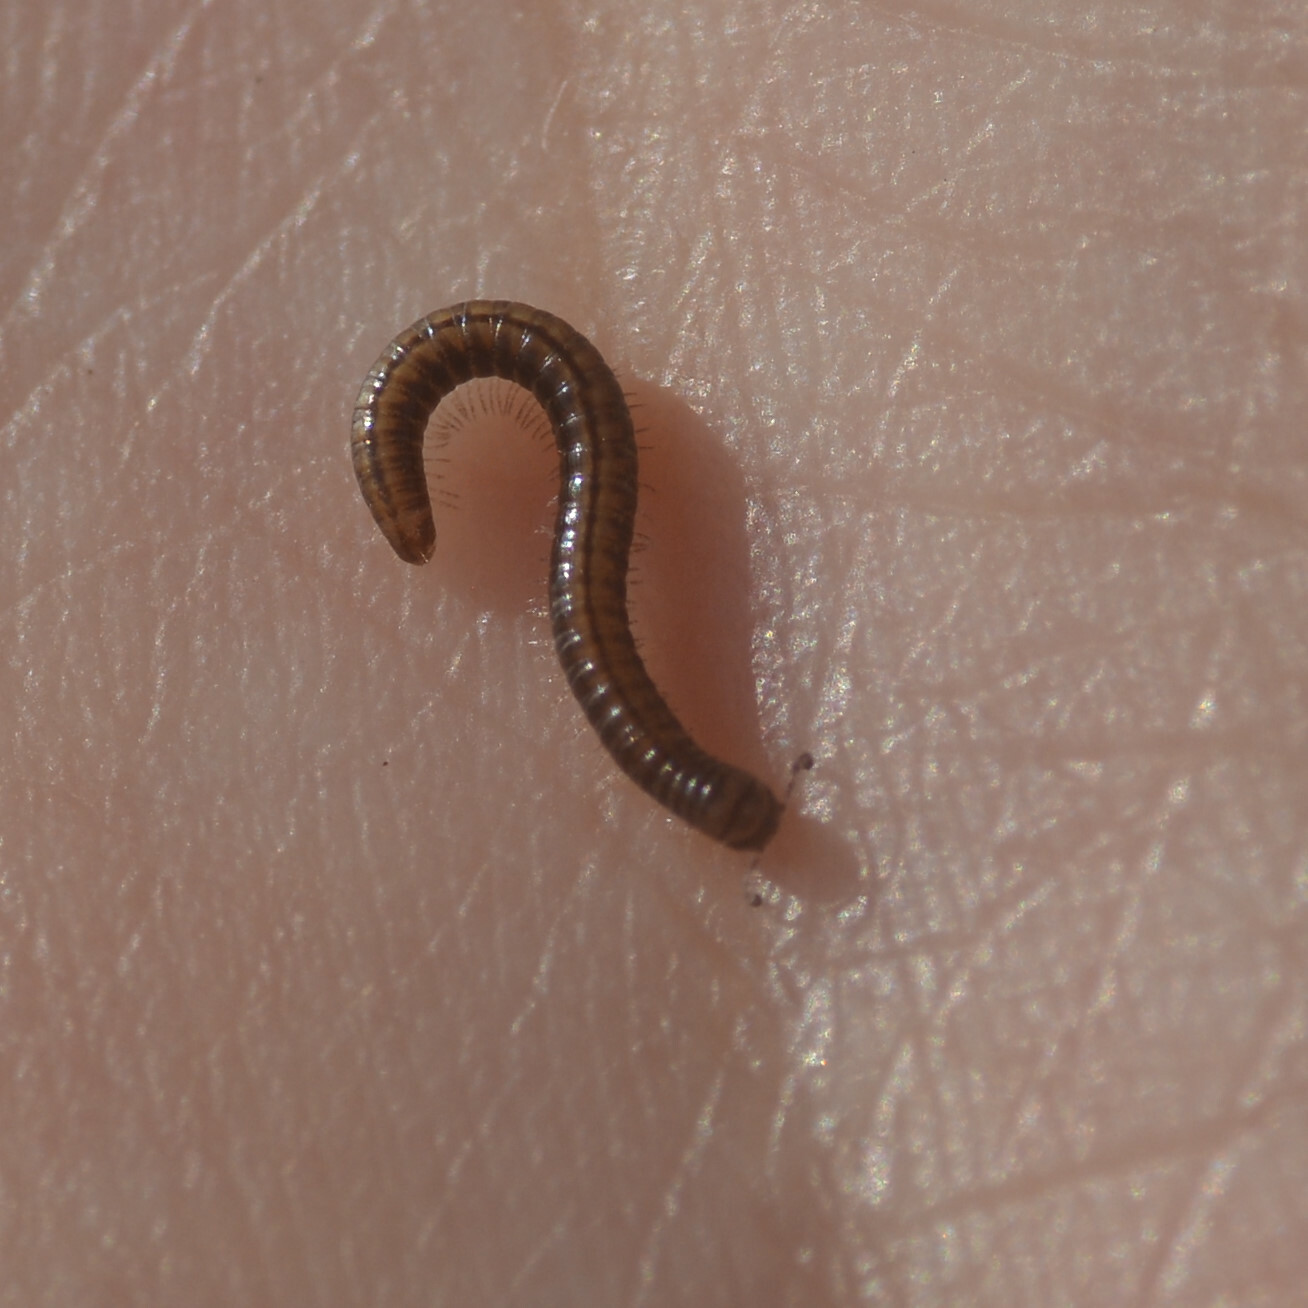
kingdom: Animalia
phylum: Arthropoda
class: Diplopoda
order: Julida
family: Julidae
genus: Brachyiulus
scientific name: Brachyiulus
